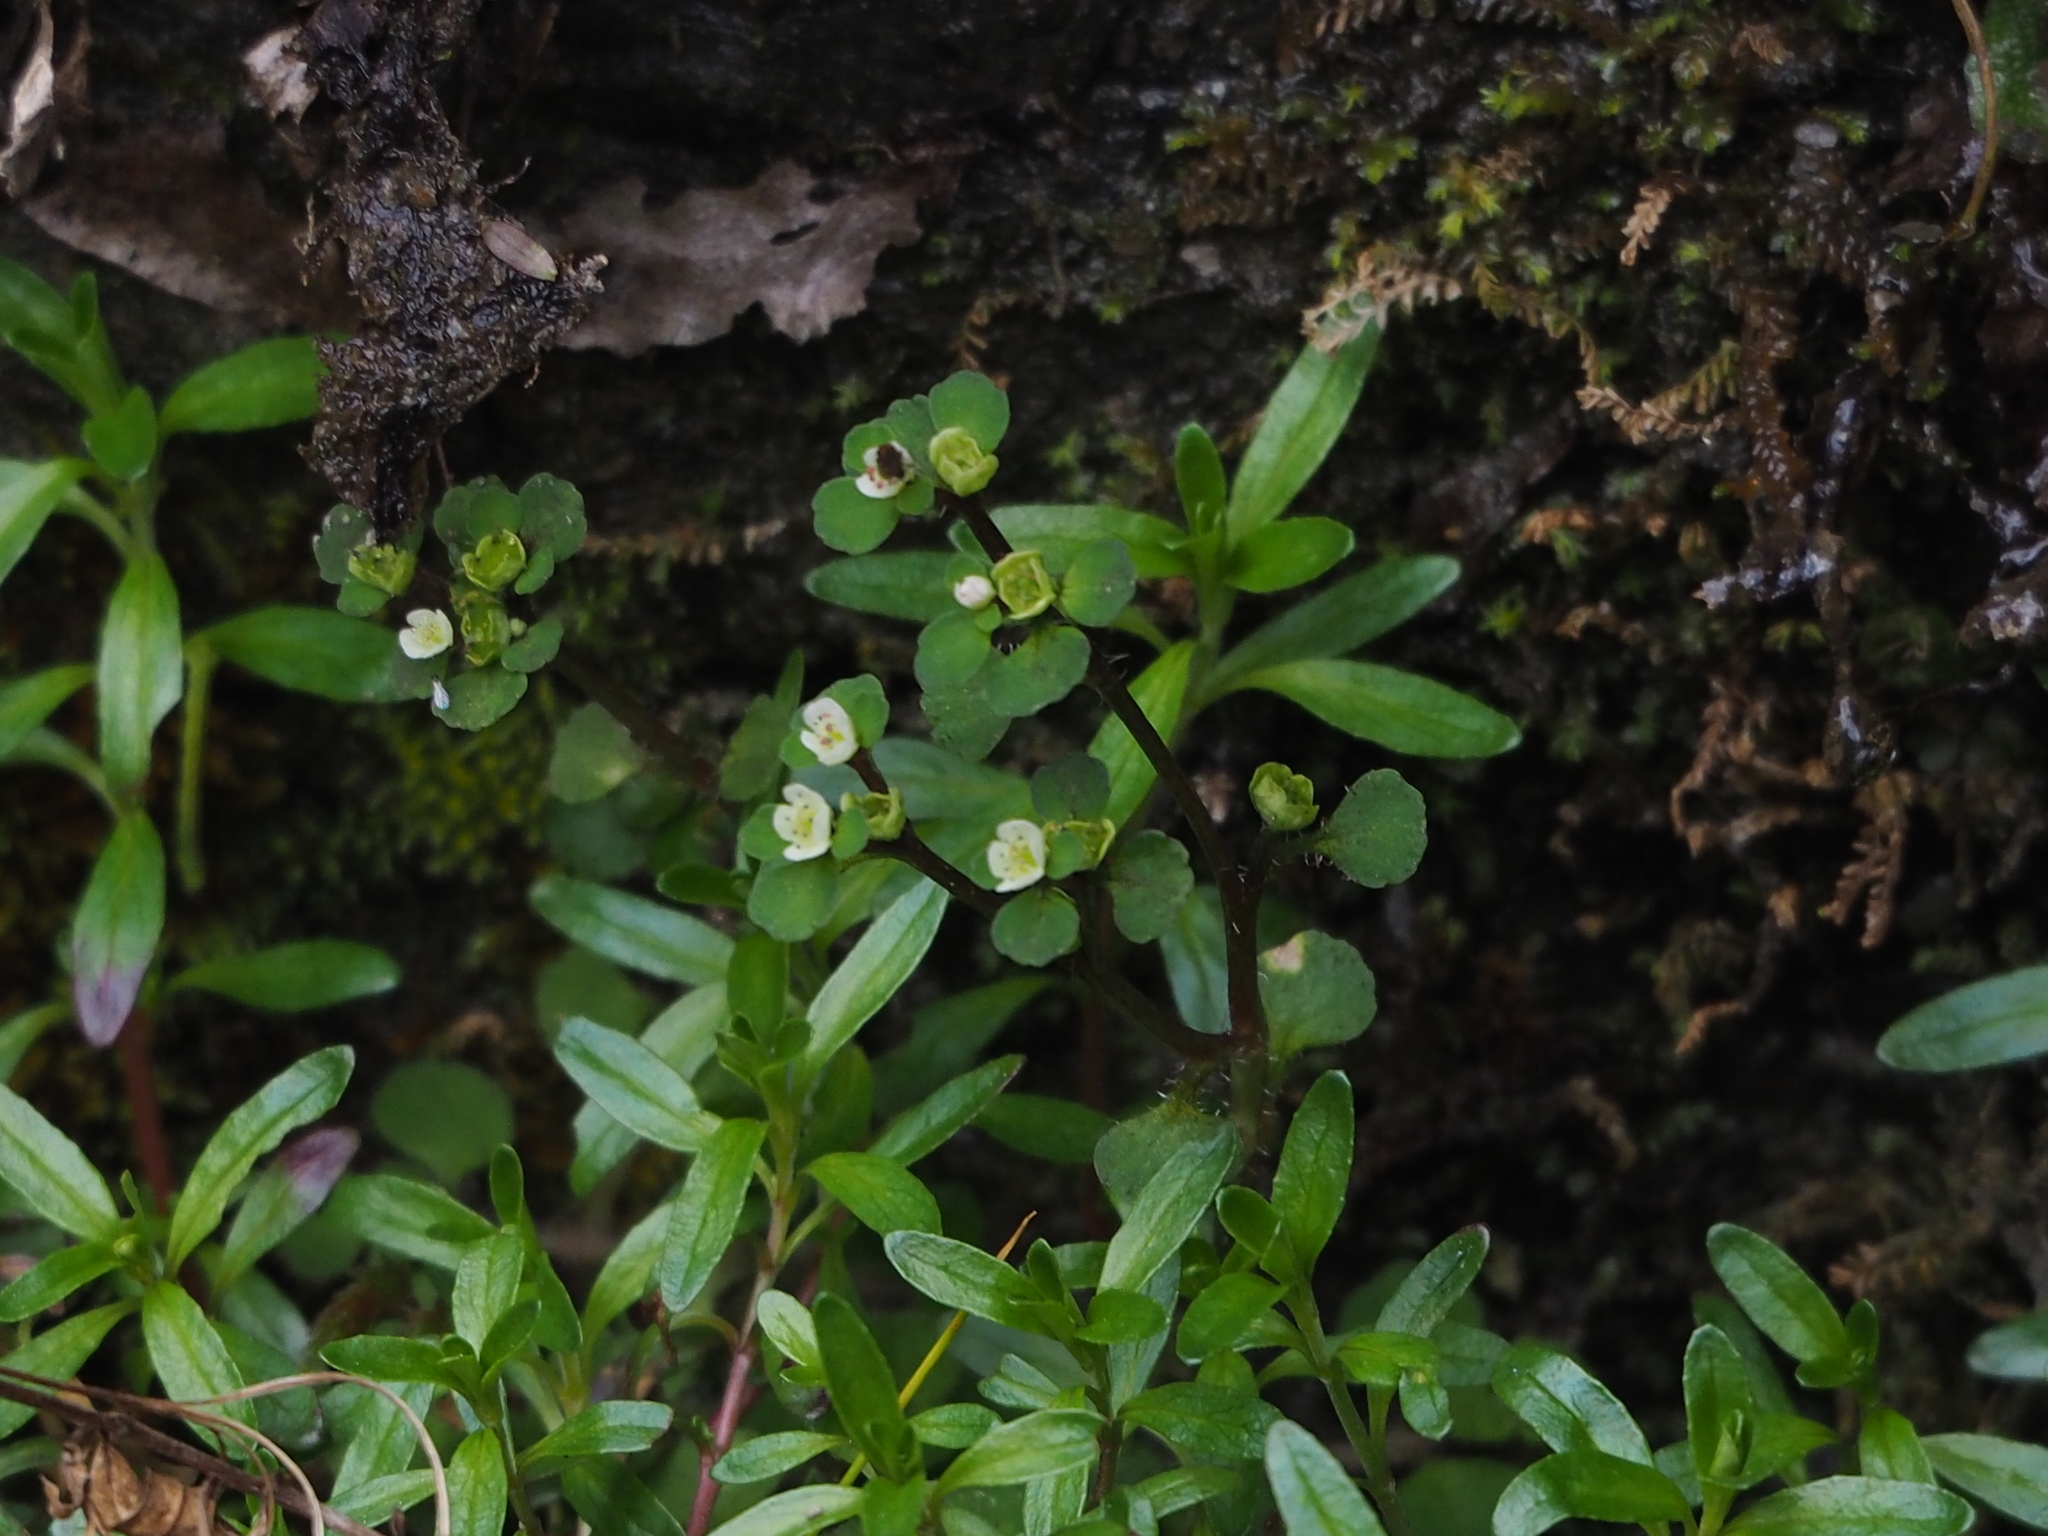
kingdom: Plantae
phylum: Tracheophyta
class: Magnoliopsida
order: Saxifragales
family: Saxifragaceae
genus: Chrysosplenium
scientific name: Chrysosplenium hebetatum
